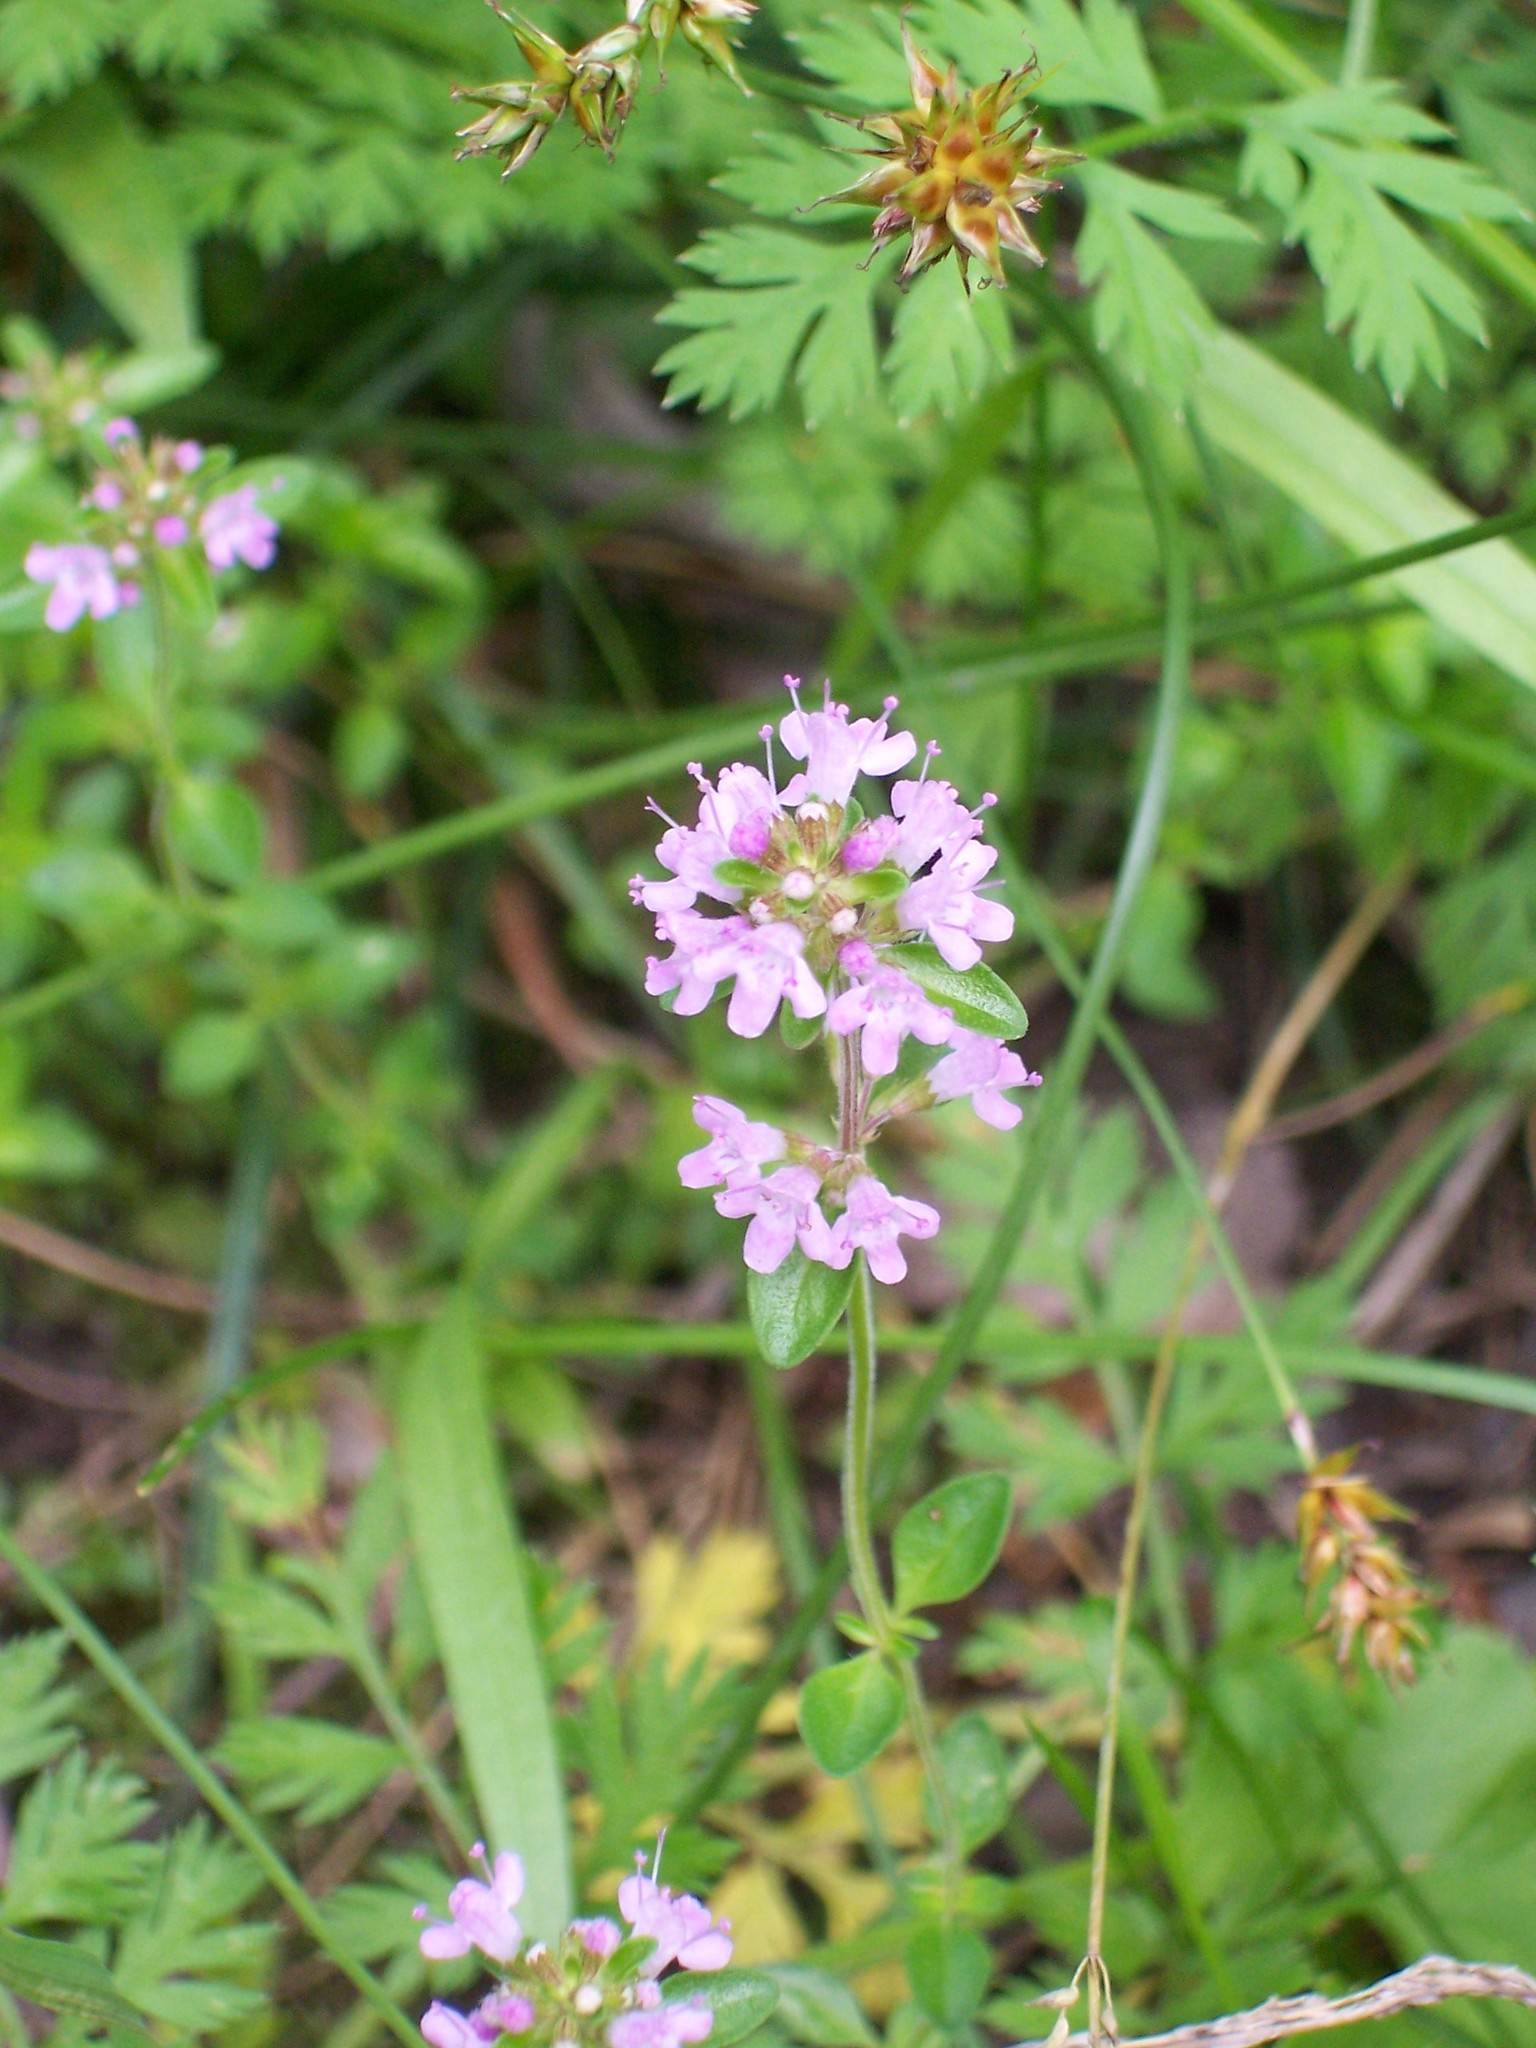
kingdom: Plantae
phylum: Tracheophyta
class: Magnoliopsida
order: Lamiales
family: Lamiaceae
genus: Thymus
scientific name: Thymus pulegioides
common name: Large thyme
